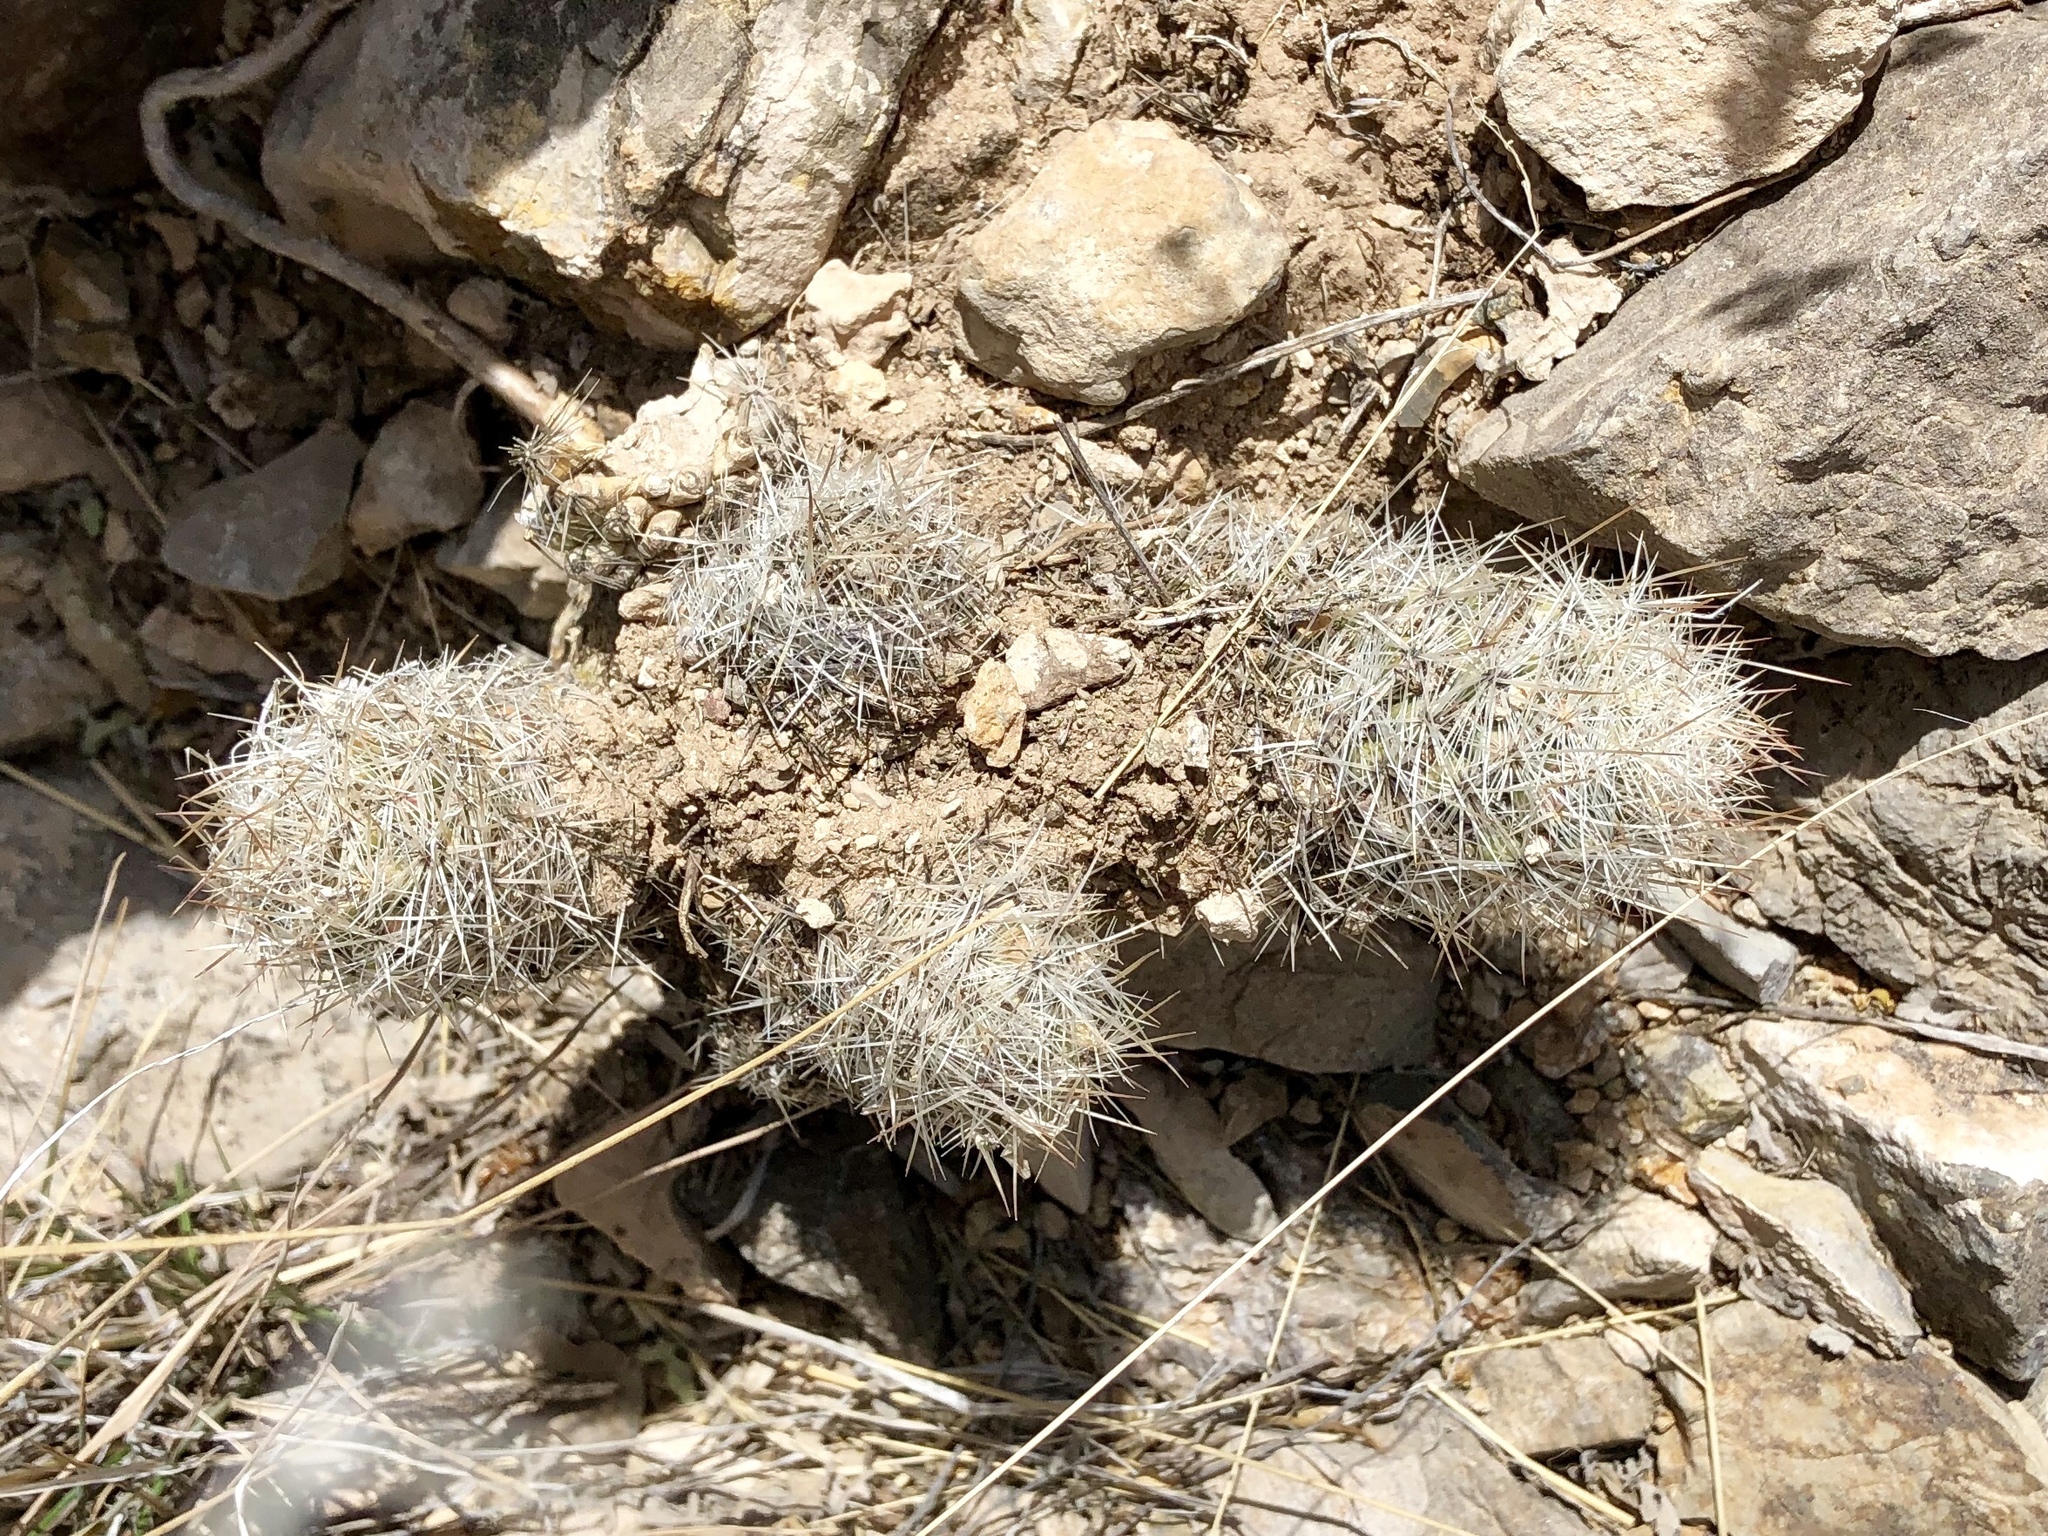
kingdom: Plantae
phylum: Tracheophyta
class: Magnoliopsida
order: Caryophyllales
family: Cactaceae
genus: Pelecyphora
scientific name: Pelecyphora tuberculosa
